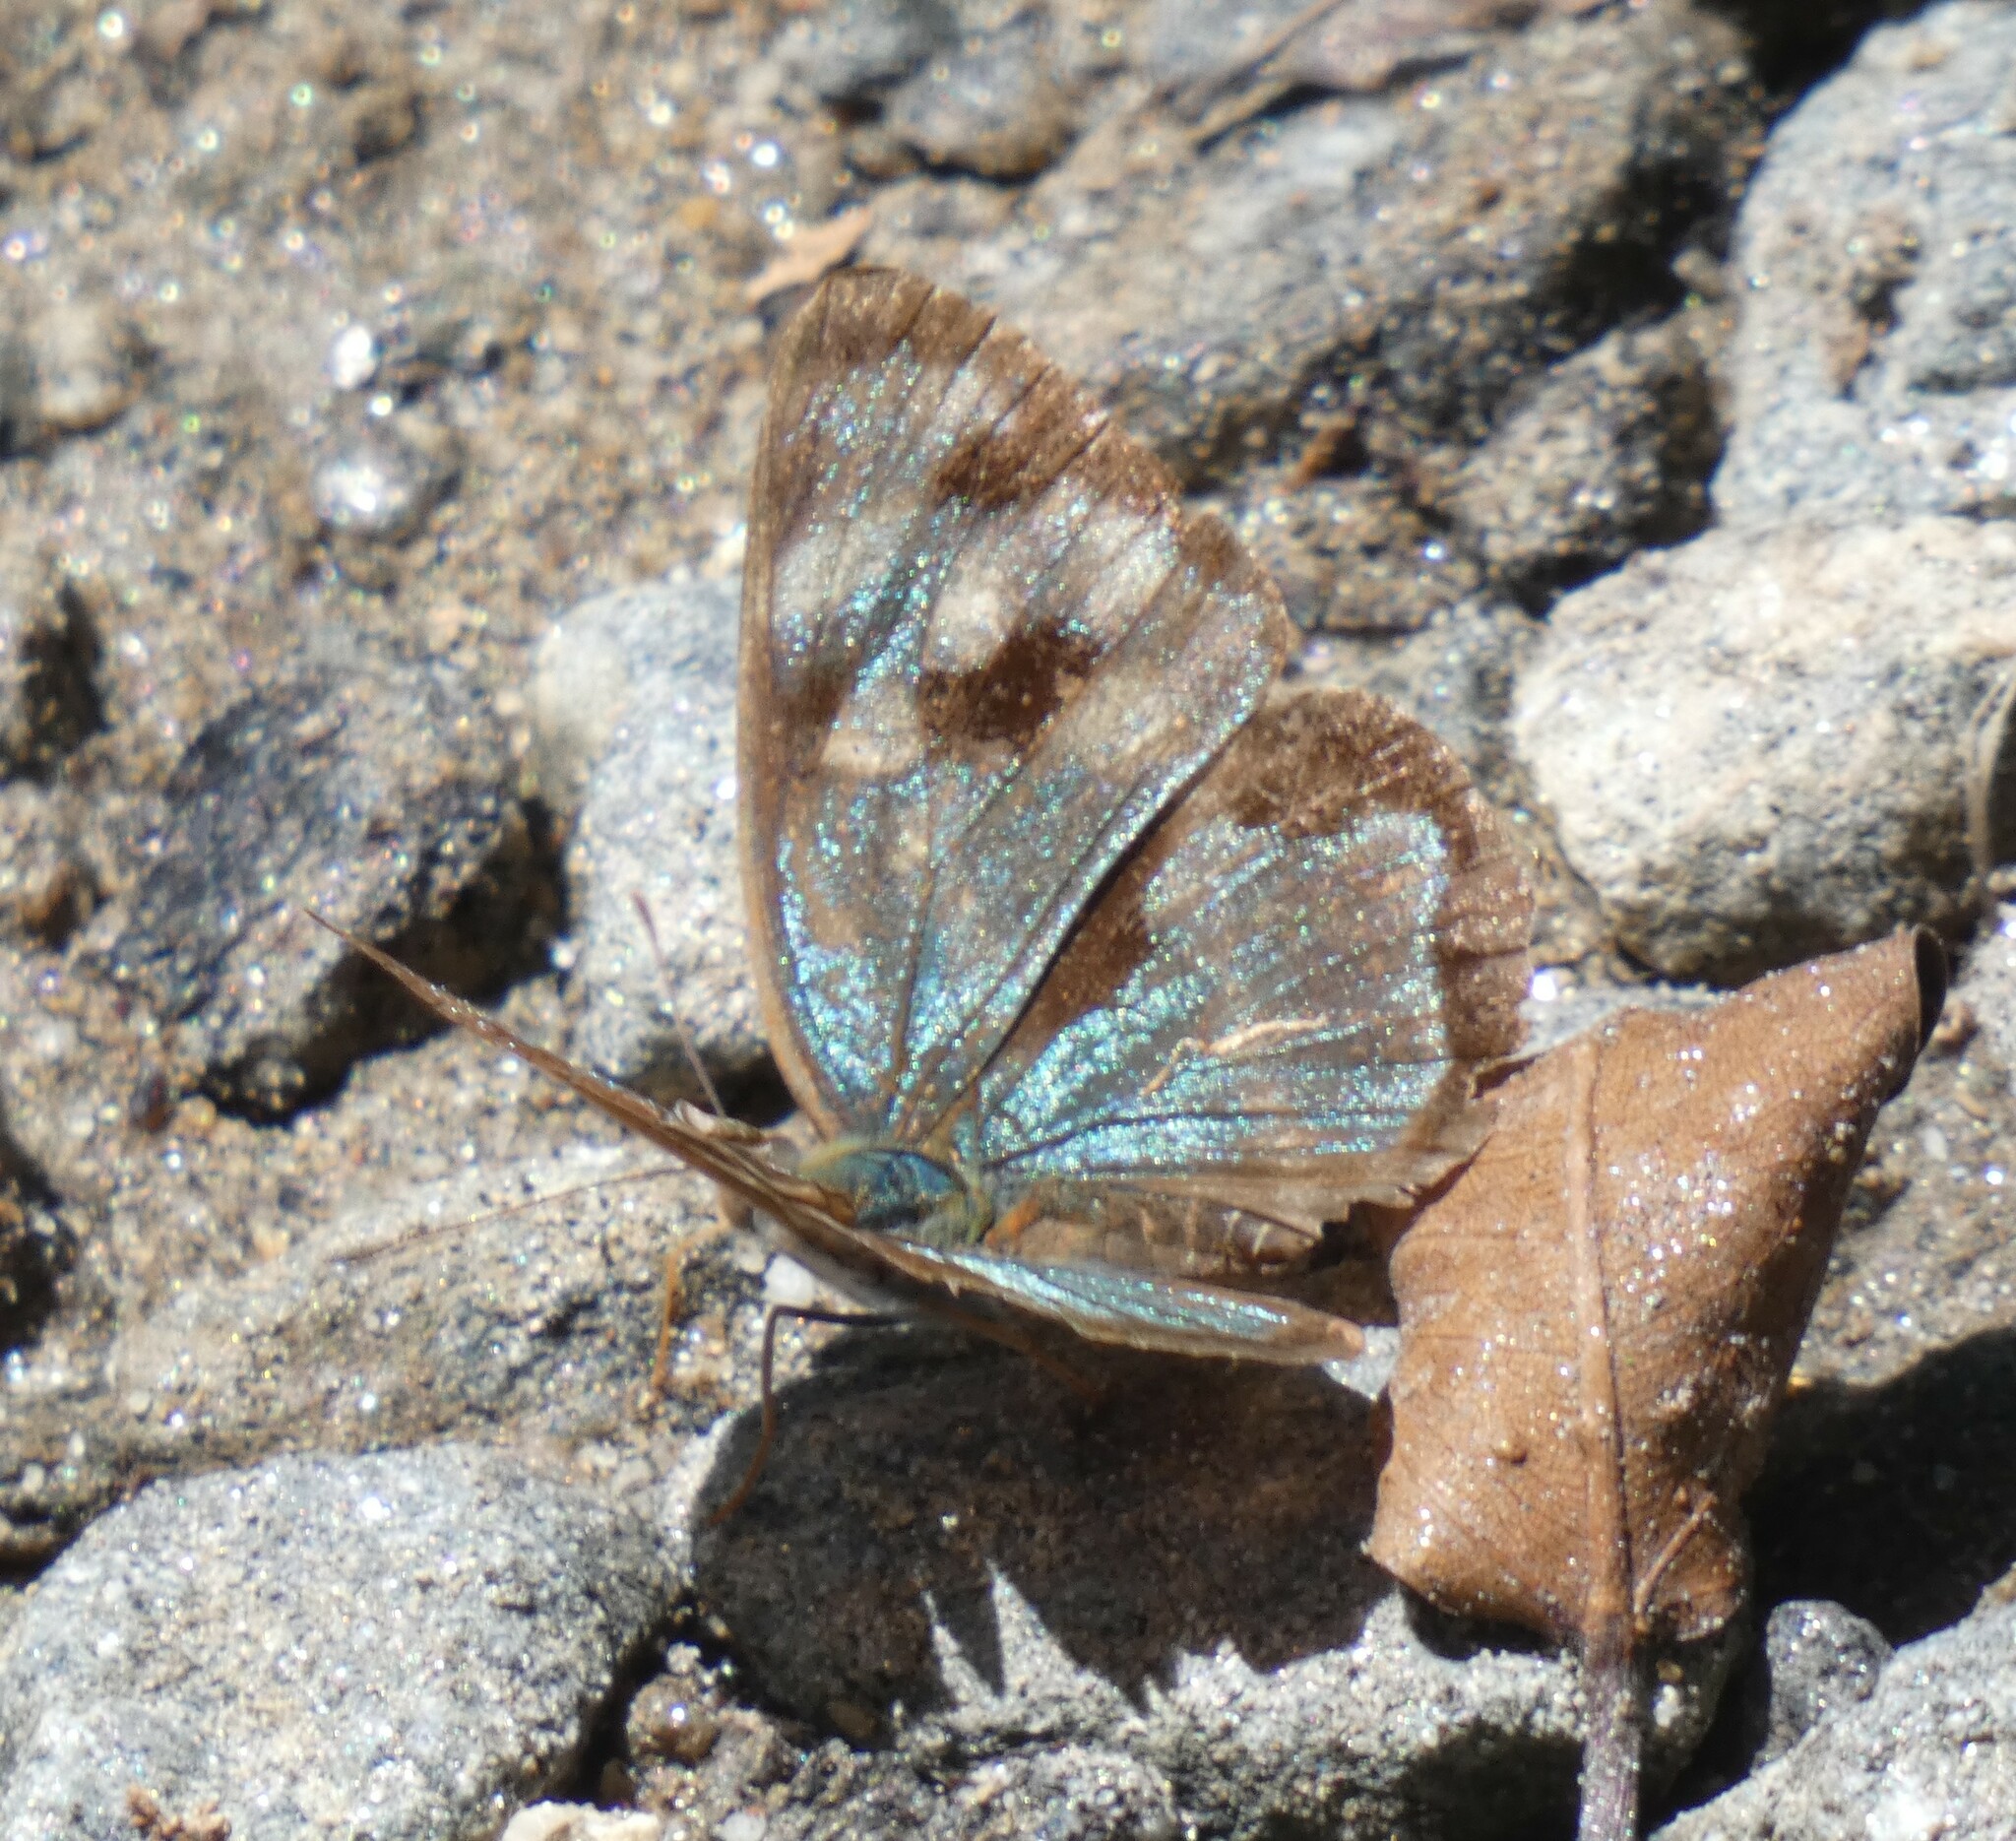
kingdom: Animalia
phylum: Arthropoda
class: Insecta
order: Lepidoptera
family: Nymphalidae
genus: Dynamine
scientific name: Dynamine mylitta
